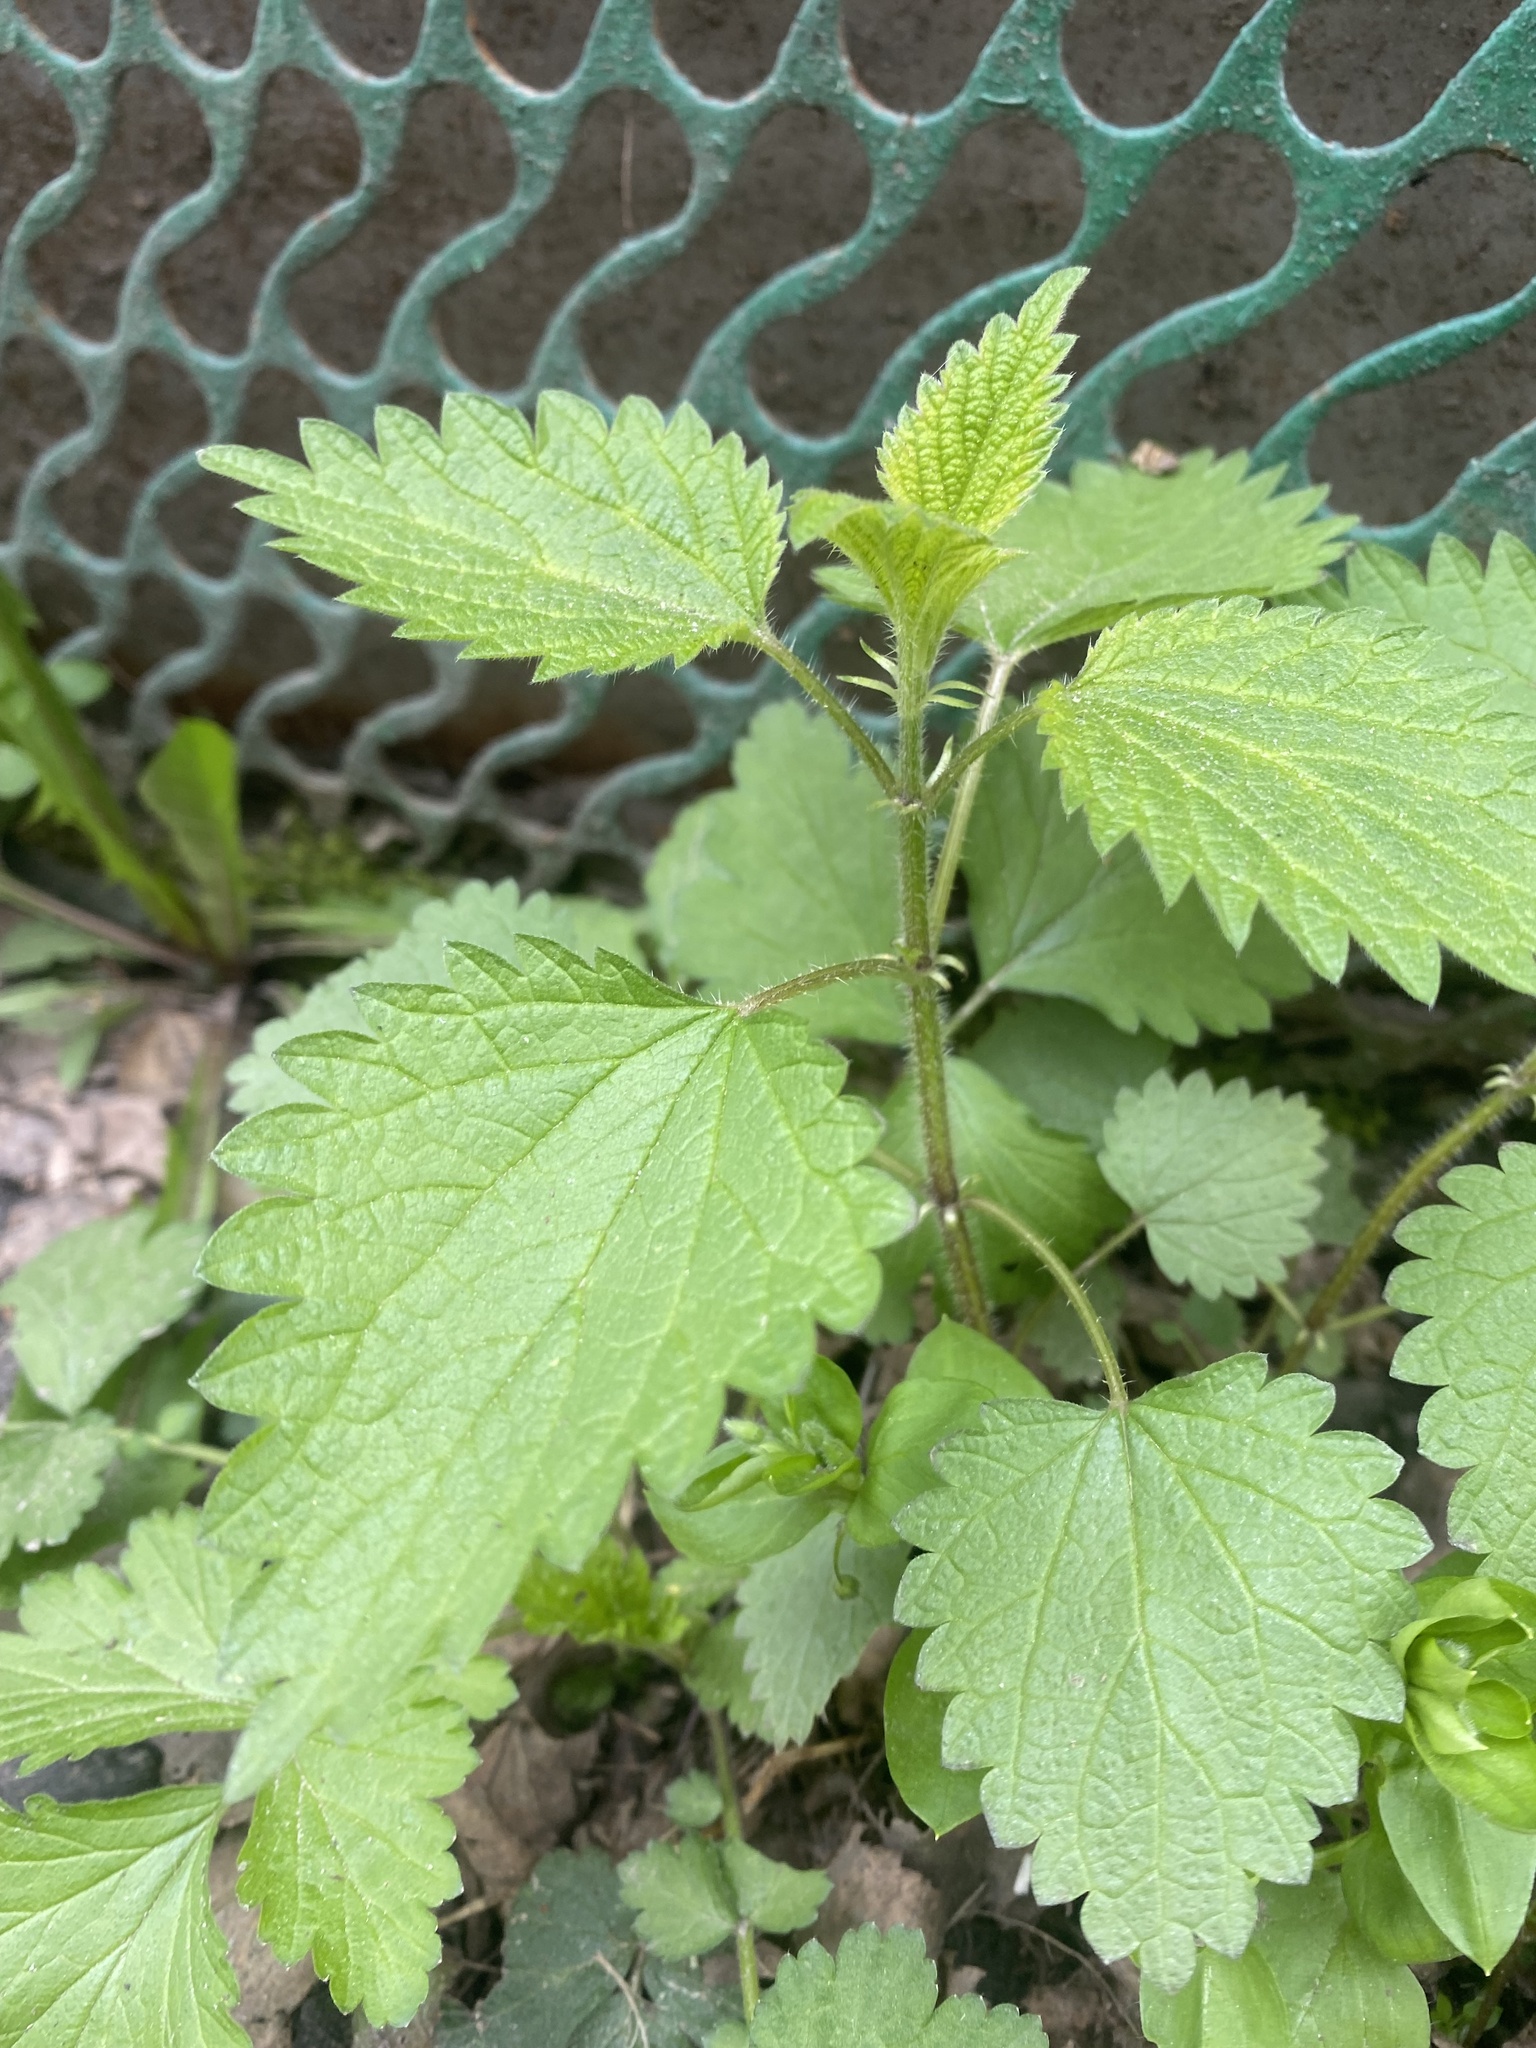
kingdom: Plantae
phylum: Tracheophyta
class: Magnoliopsida
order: Rosales
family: Urticaceae
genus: Urtica
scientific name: Urtica dioica
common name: Common nettle
